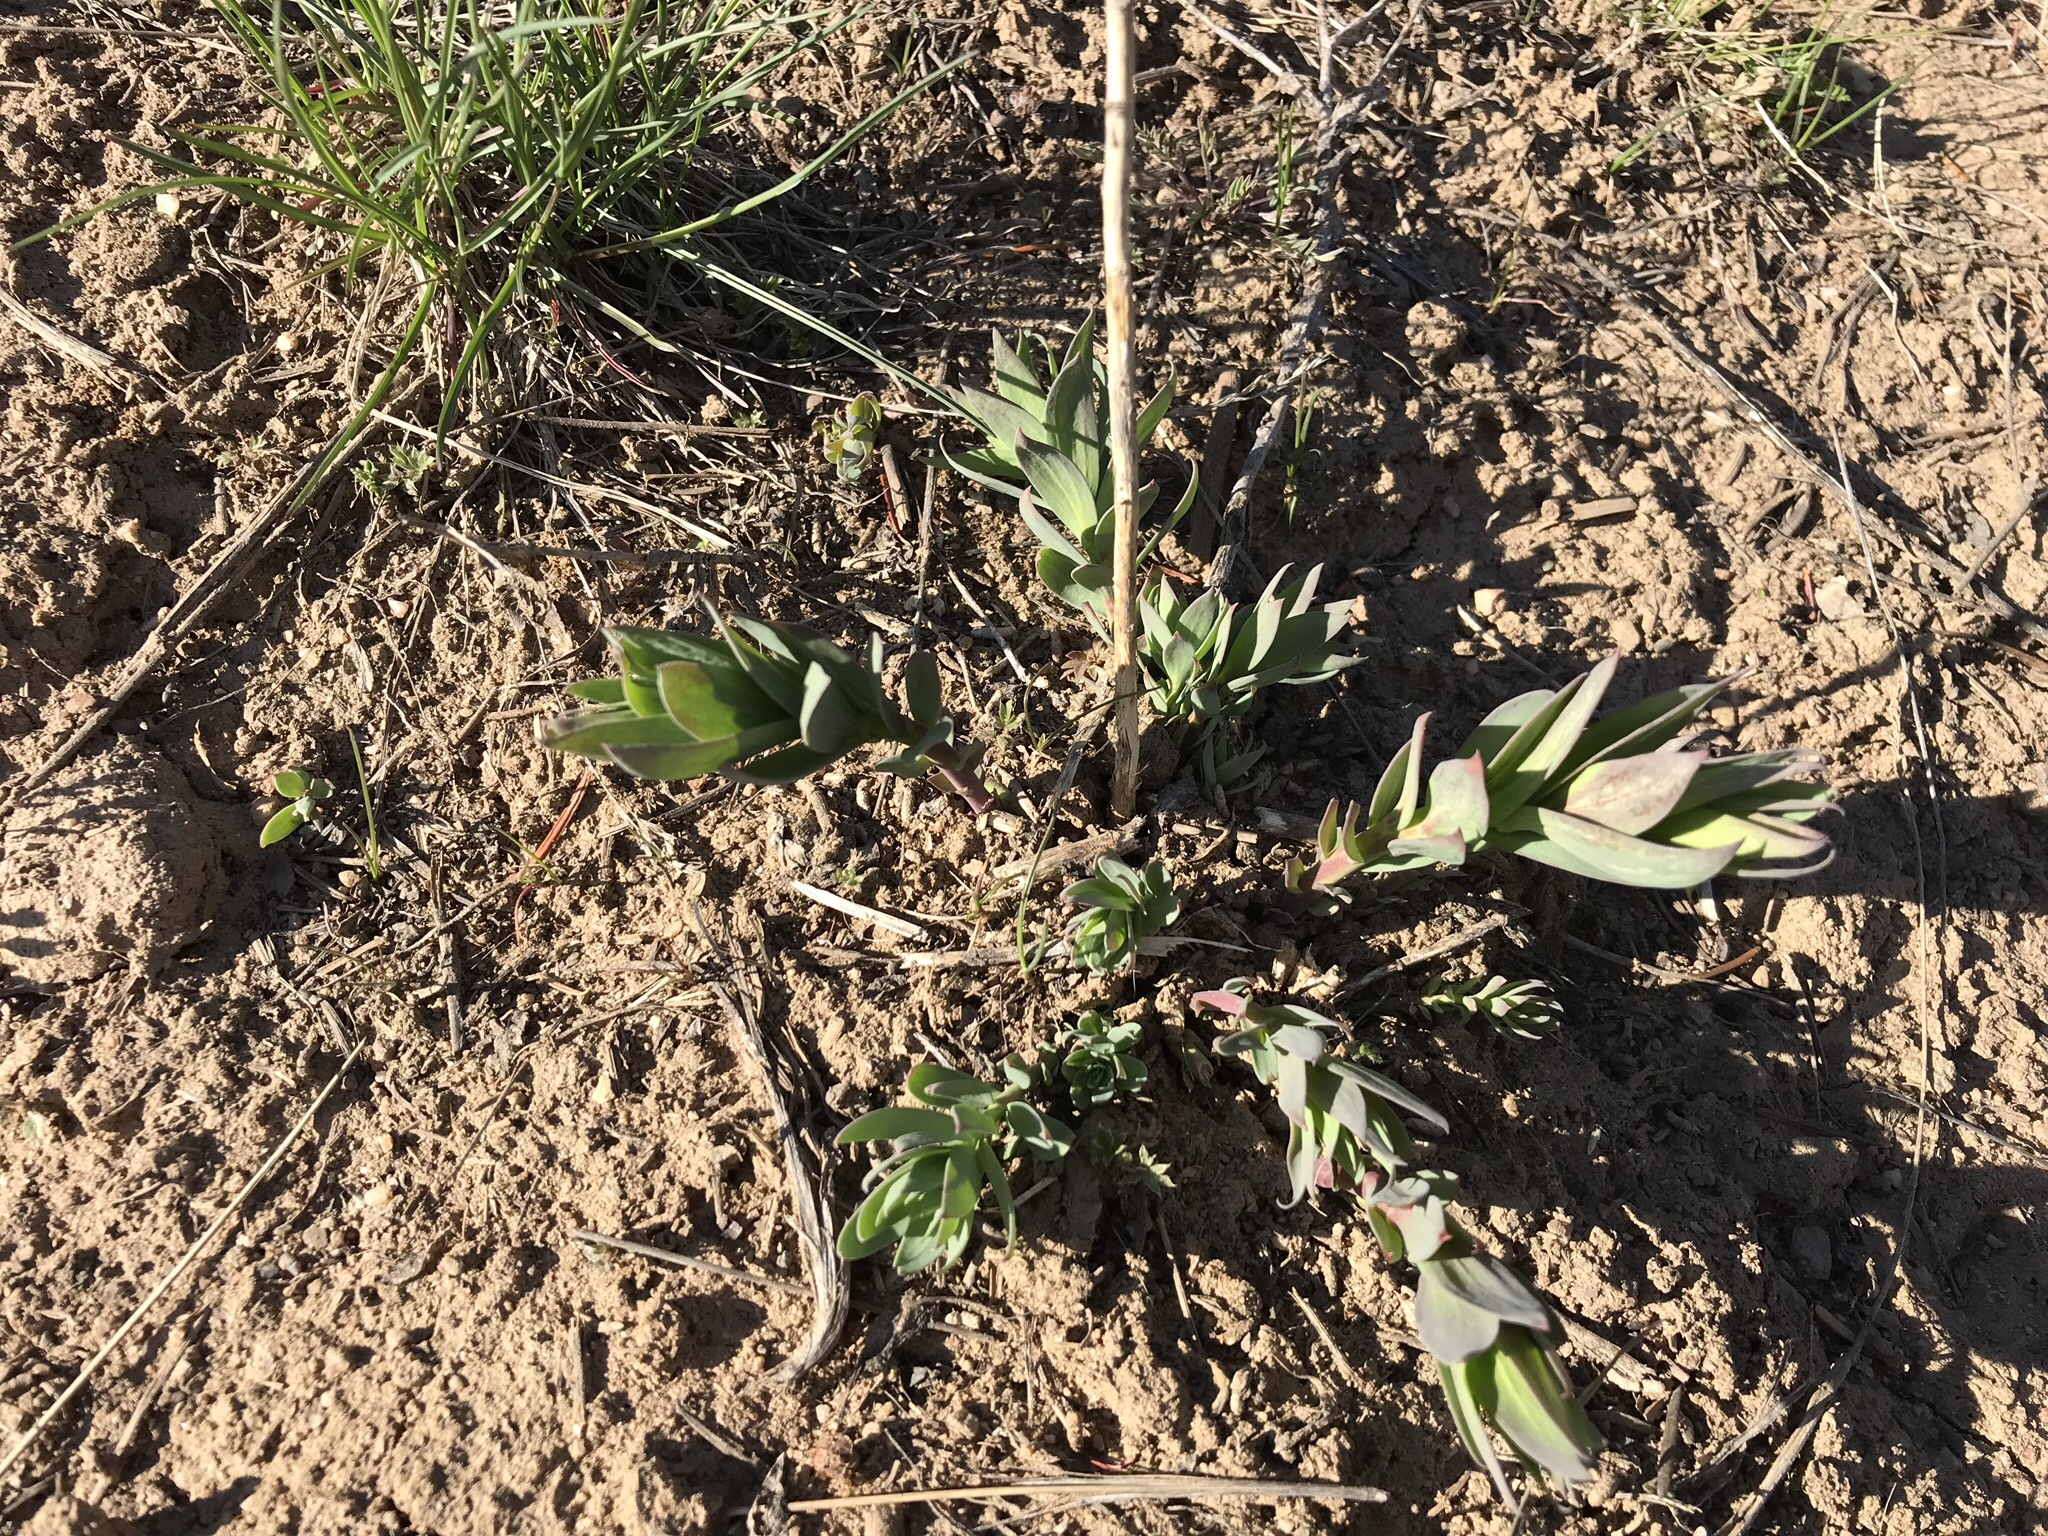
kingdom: Plantae
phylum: Tracheophyta
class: Magnoliopsida
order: Myrtales
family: Onagraceae
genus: Chamaenerion
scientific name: Chamaenerion latifolium
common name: Dwarf fireweed
